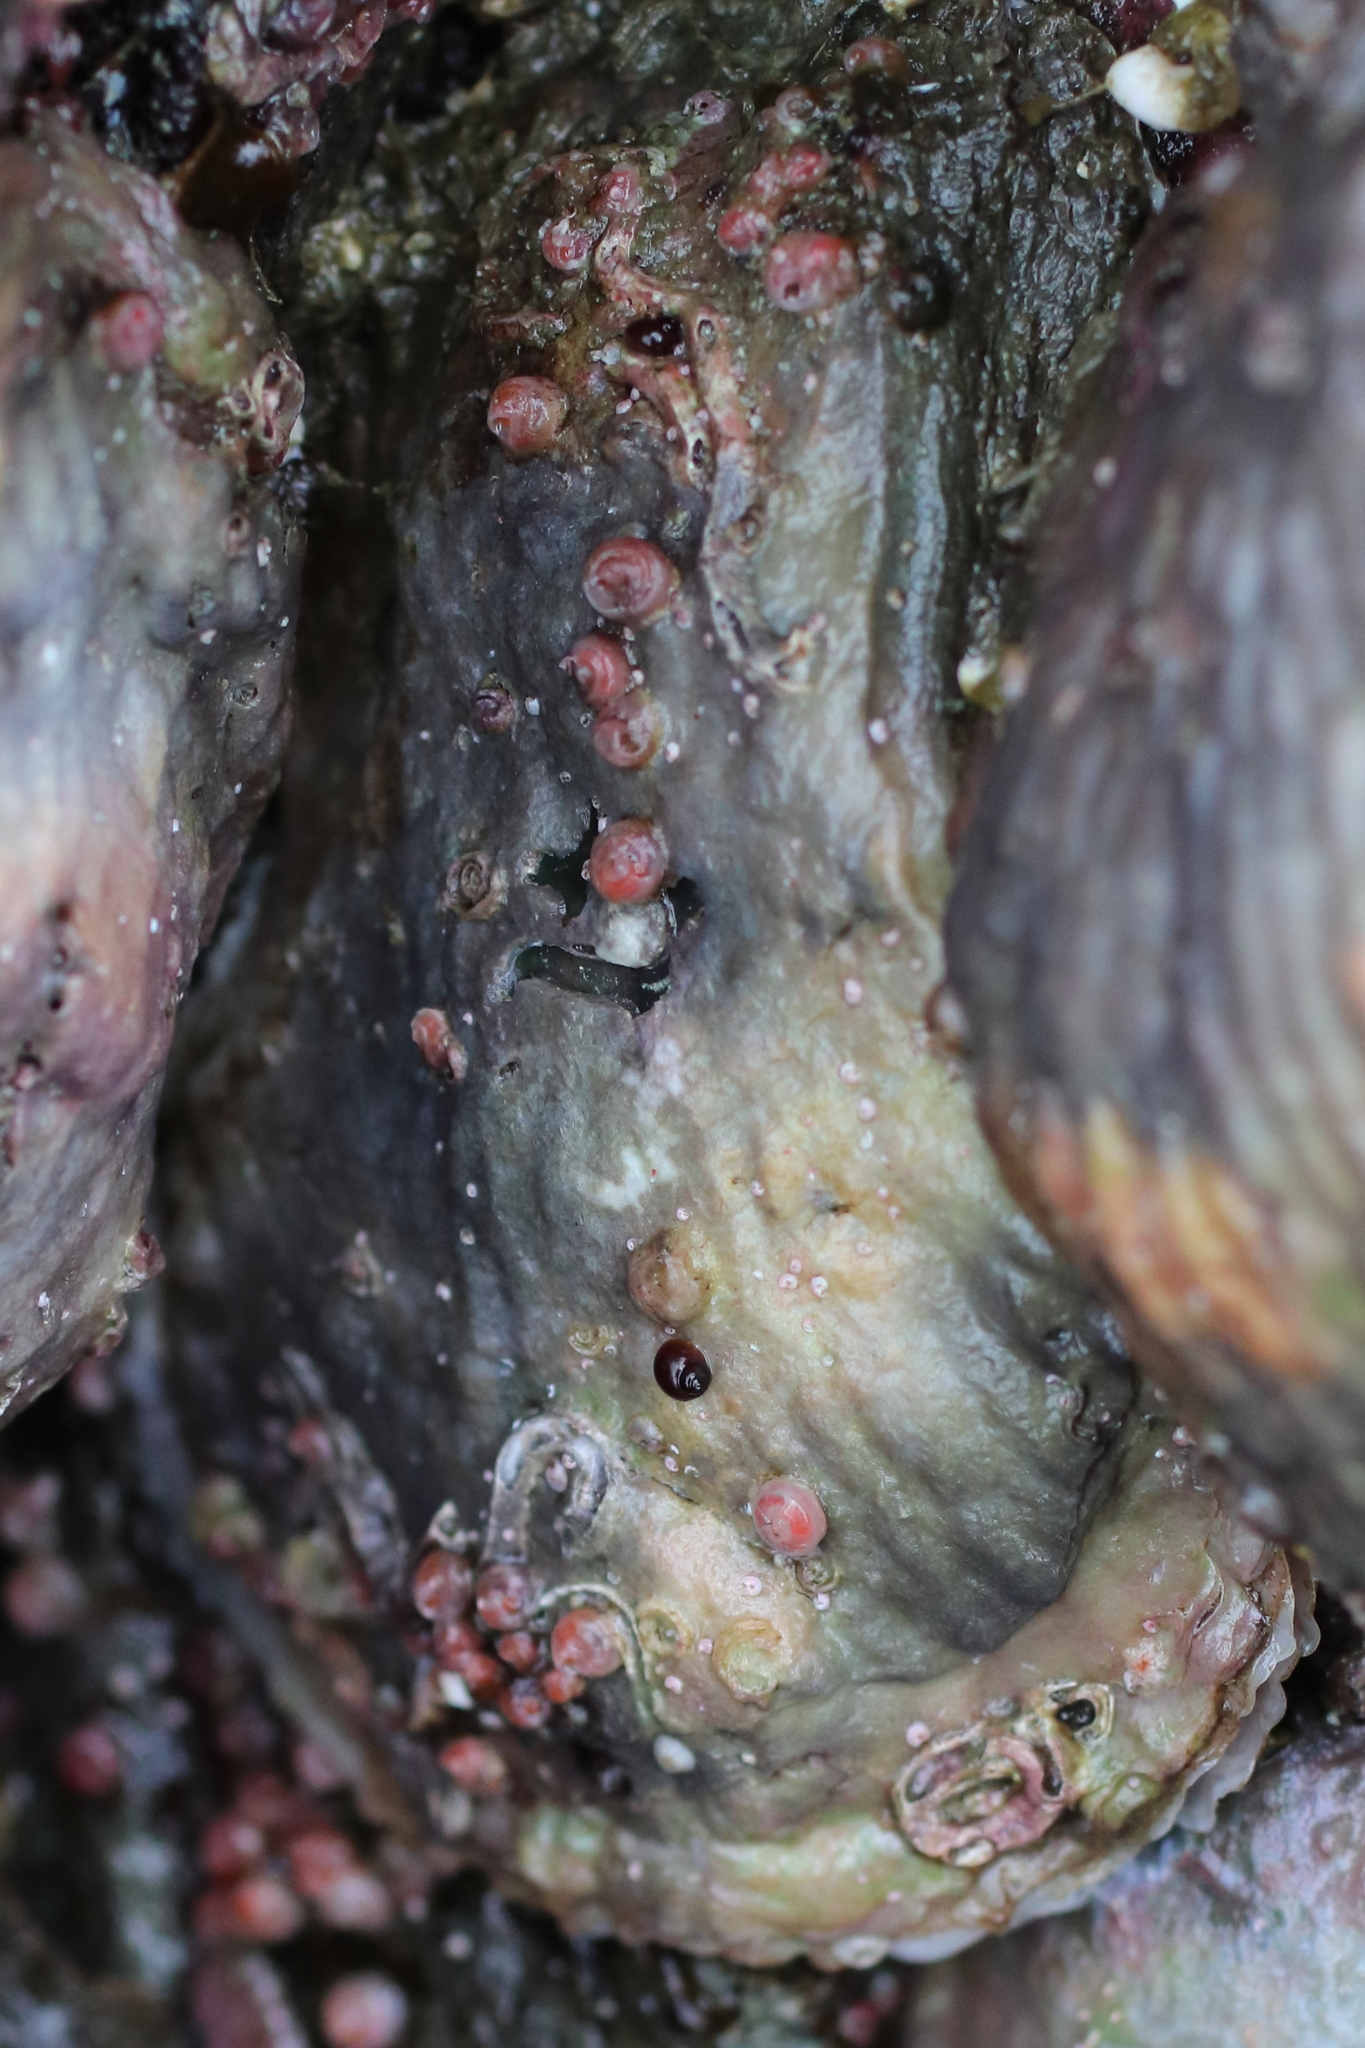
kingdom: Animalia
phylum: Mollusca
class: Bivalvia
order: Pectinida
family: Anomiidae
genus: Pododesmus
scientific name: Pododesmus macrochisma
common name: Alaska jingle
